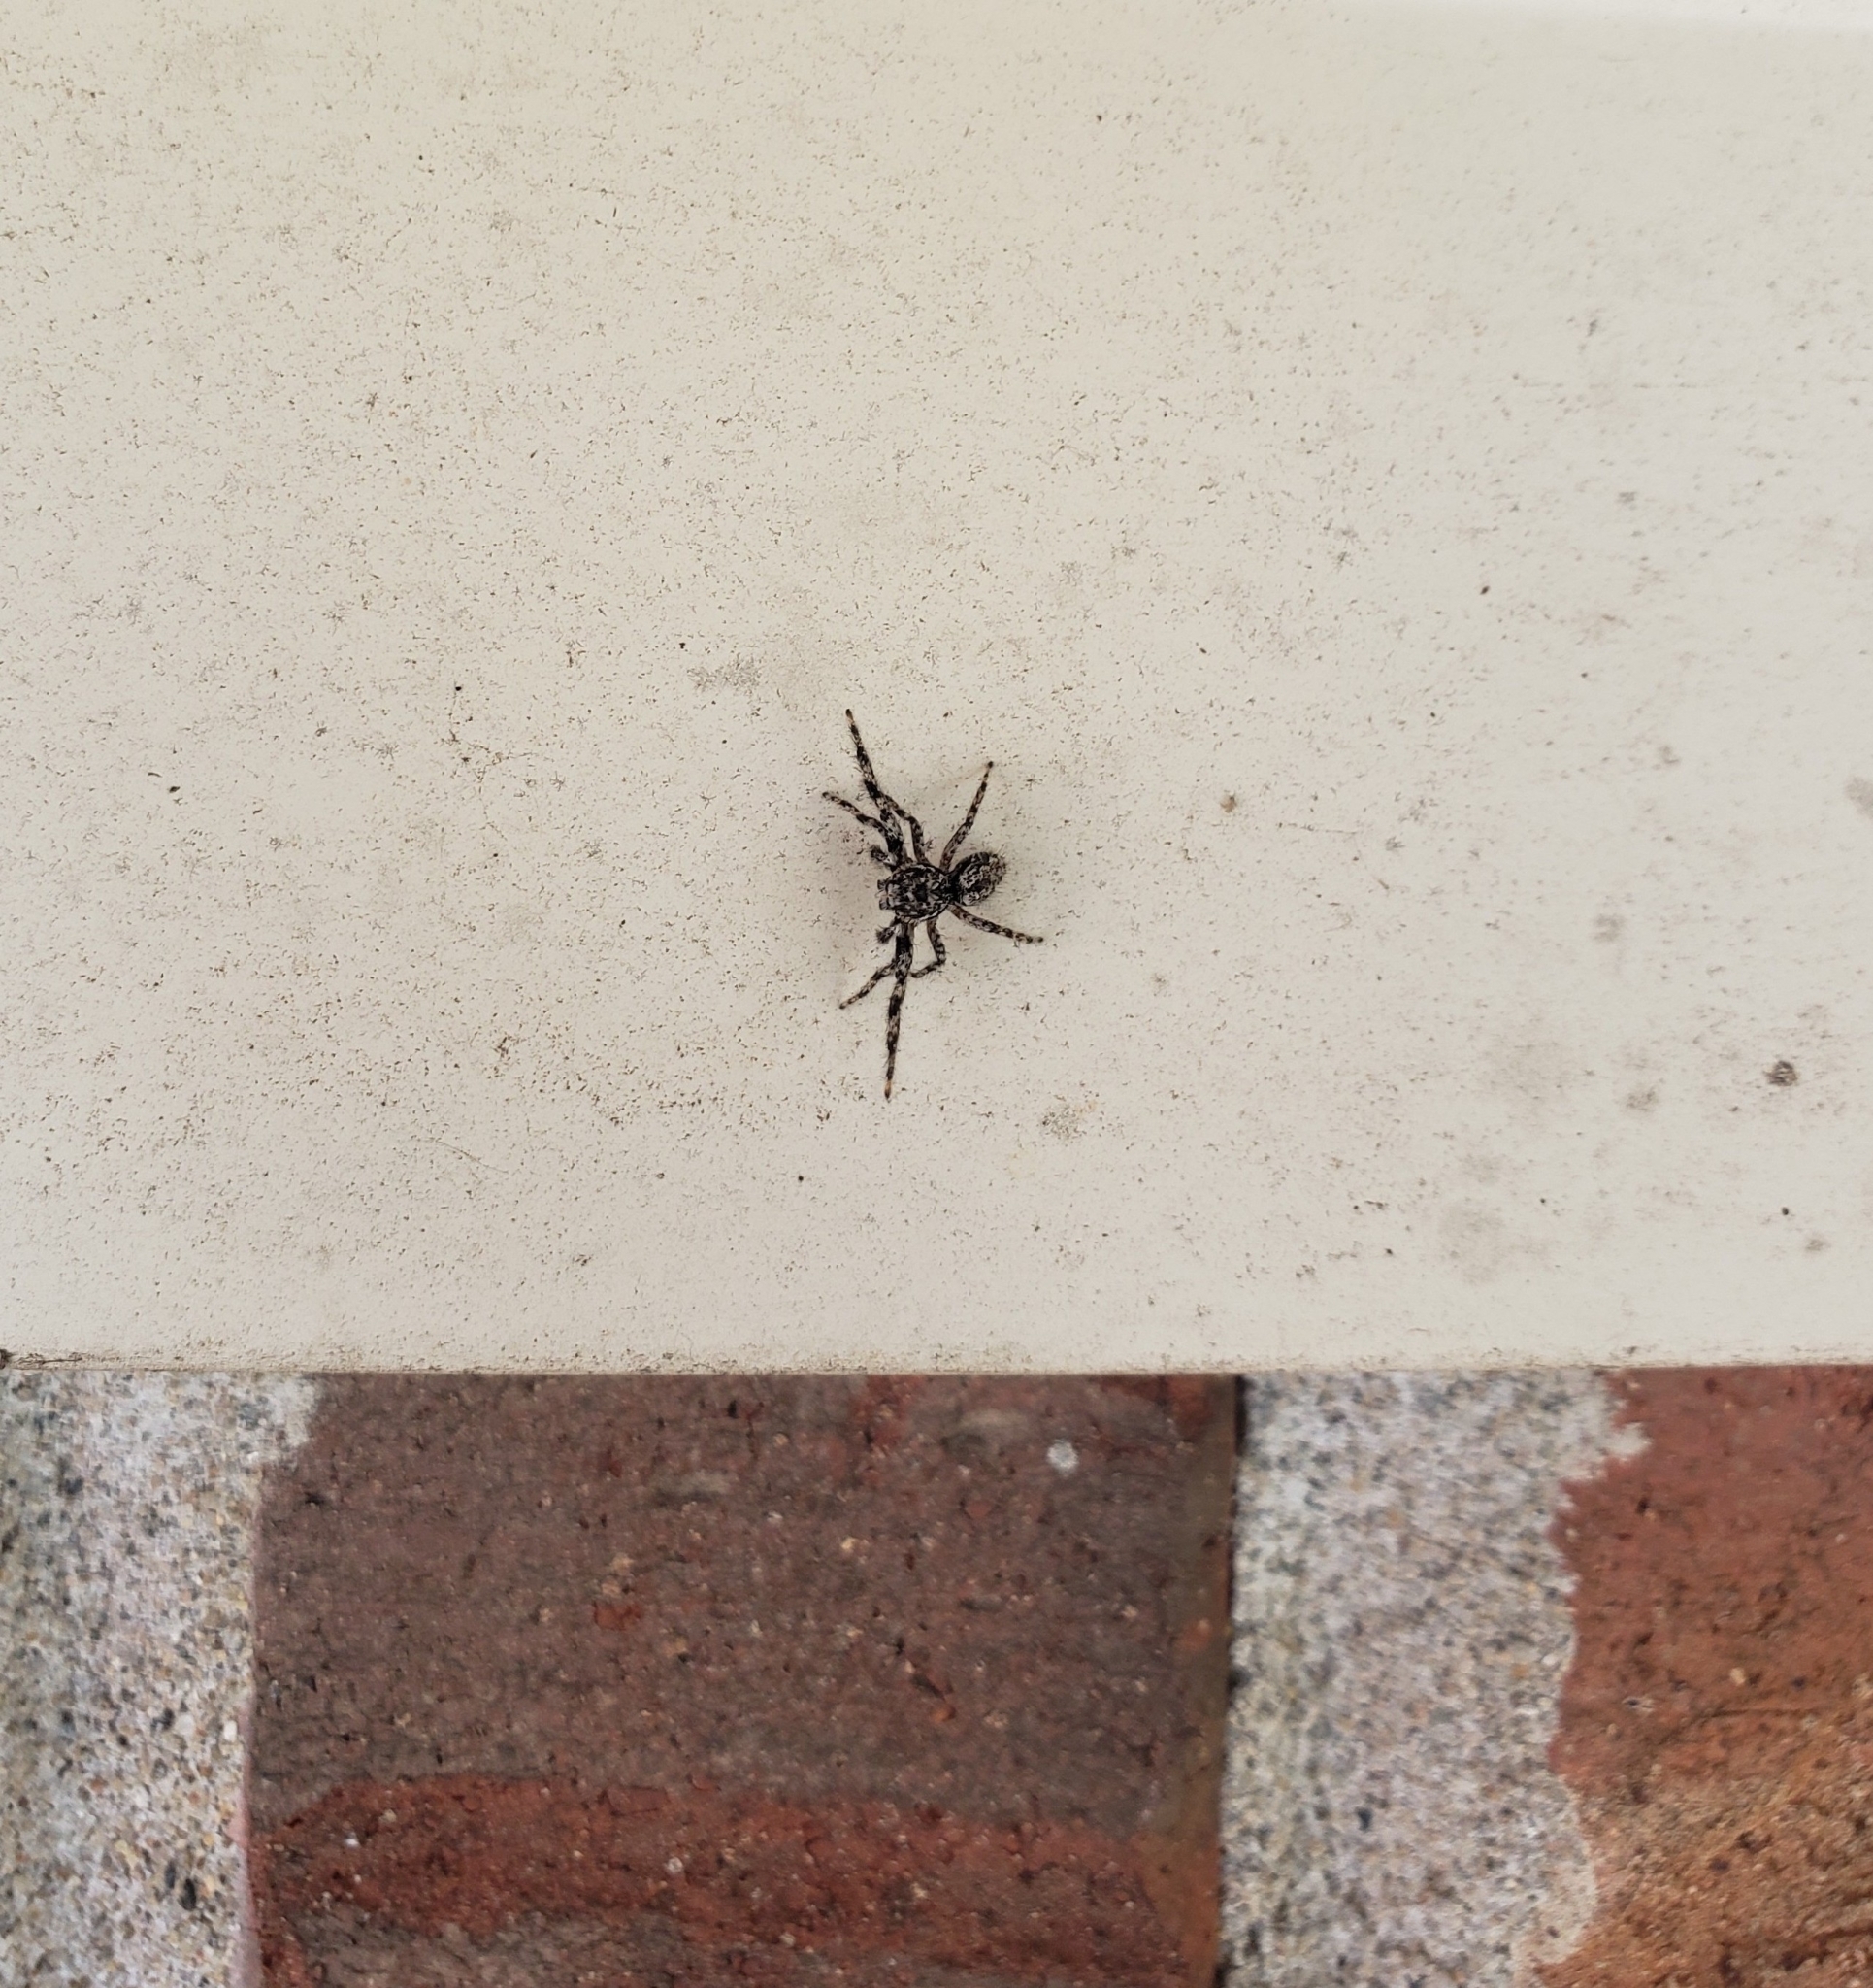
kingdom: Animalia
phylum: Arthropoda
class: Arachnida
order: Araneae
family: Salticidae
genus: Platycryptus
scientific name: Platycryptus undatus
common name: Tan jumping spider
